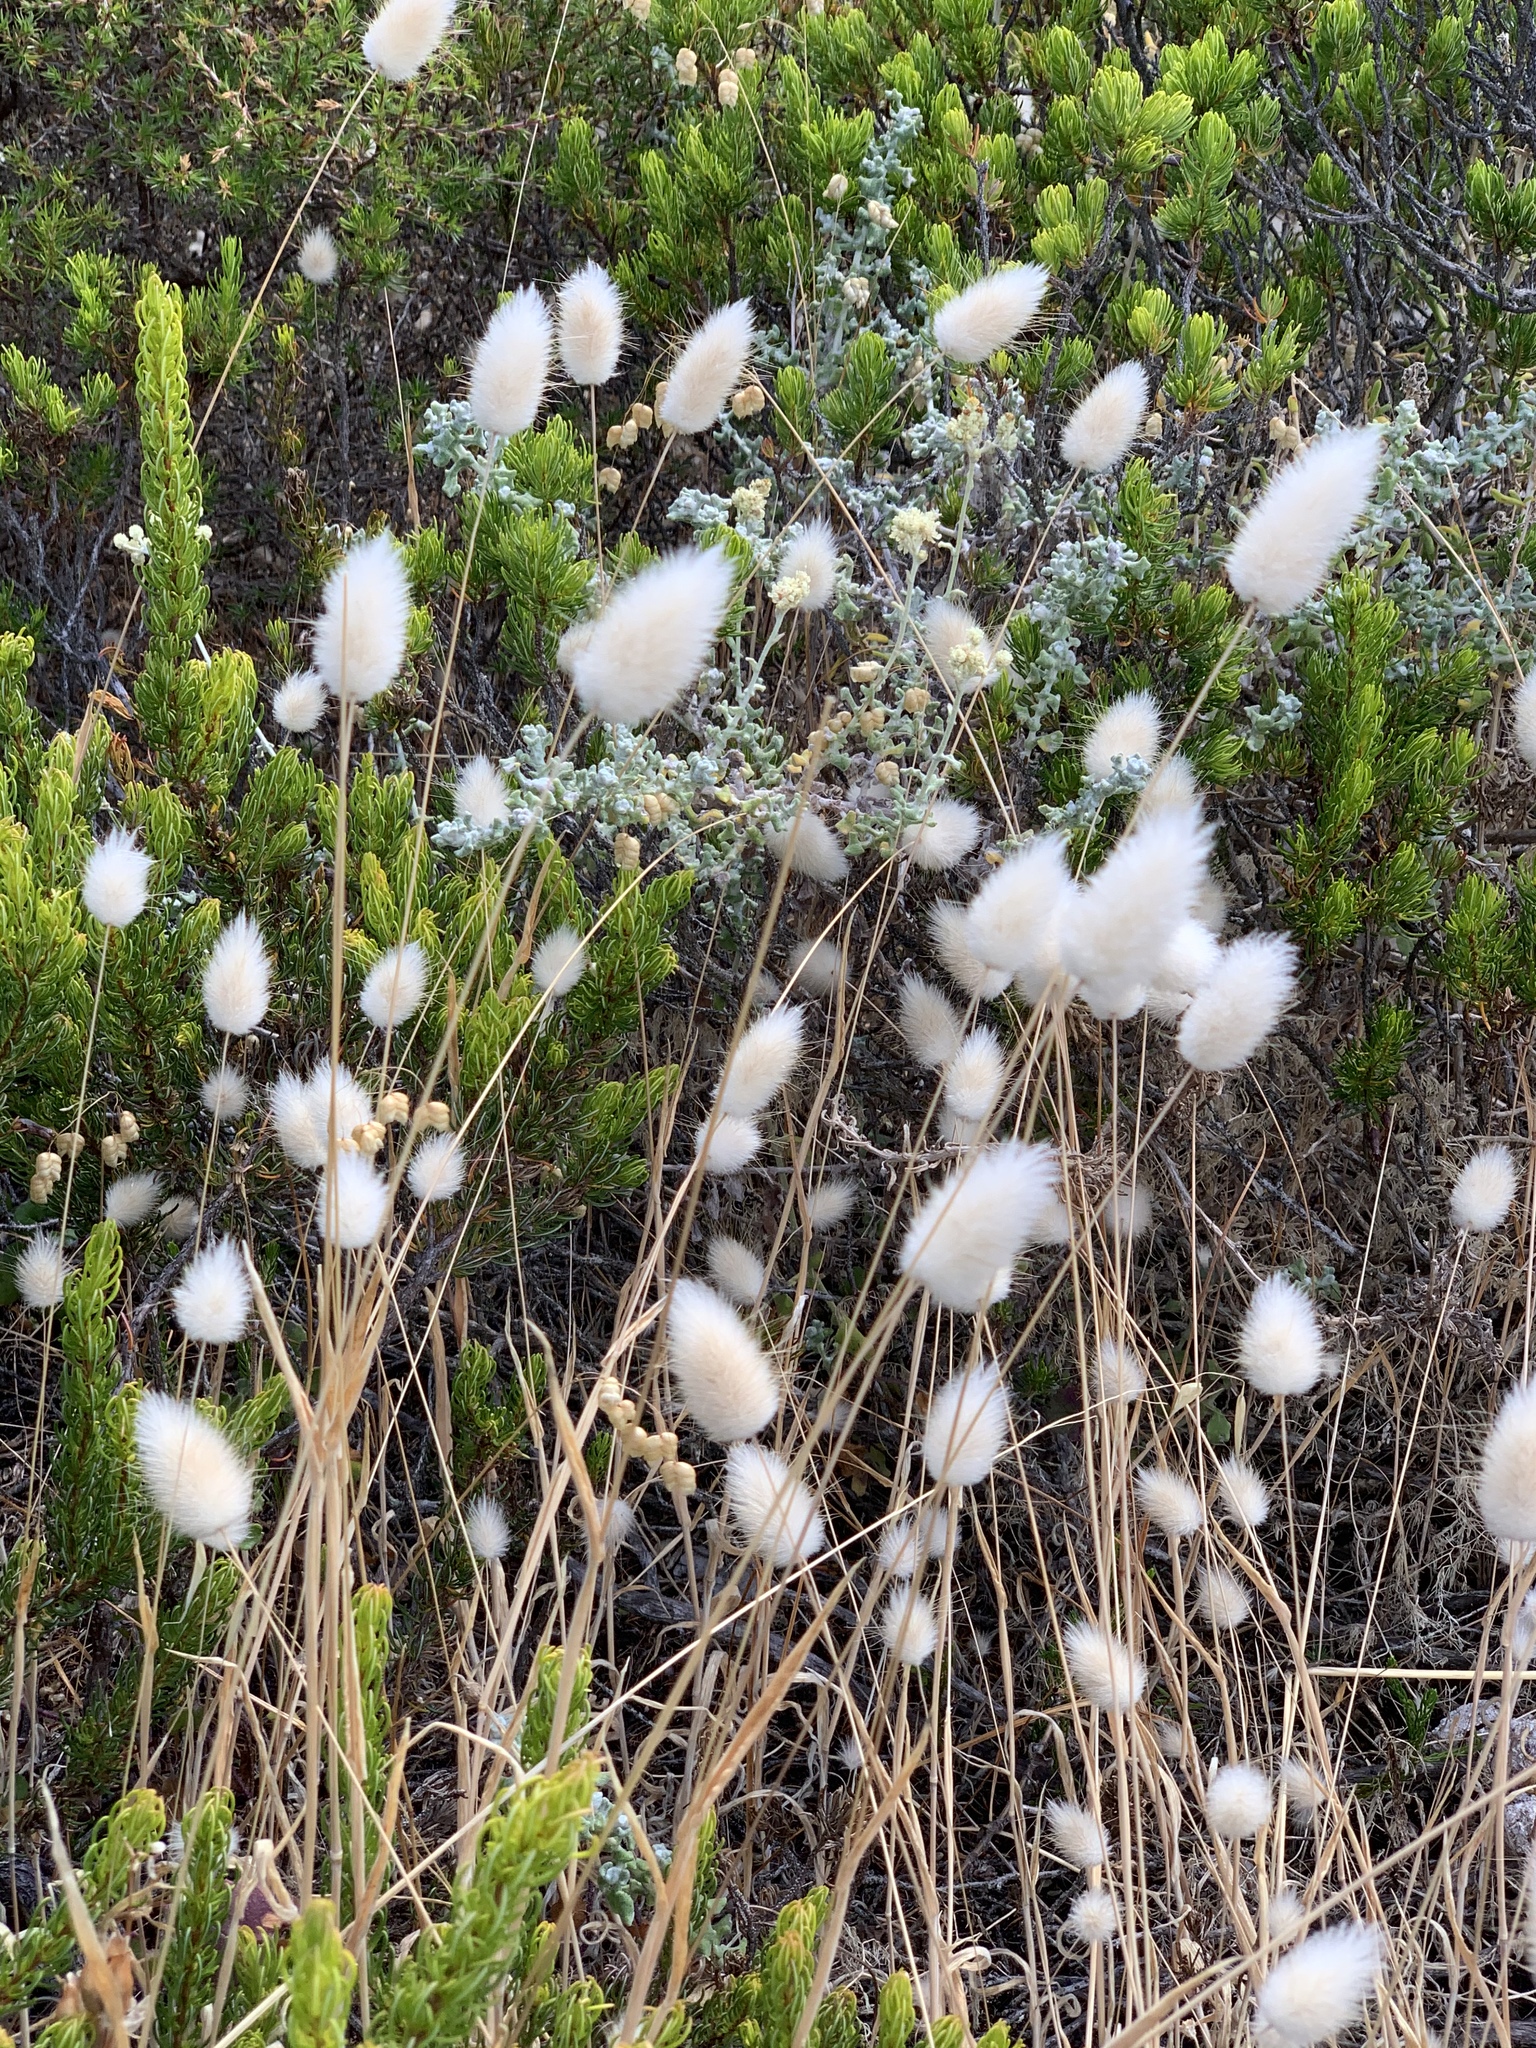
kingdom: Plantae
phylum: Tracheophyta
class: Liliopsida
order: Poales
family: Poaceae
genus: Lagurus
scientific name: Lagurus ovatus
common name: Hare's-tail
